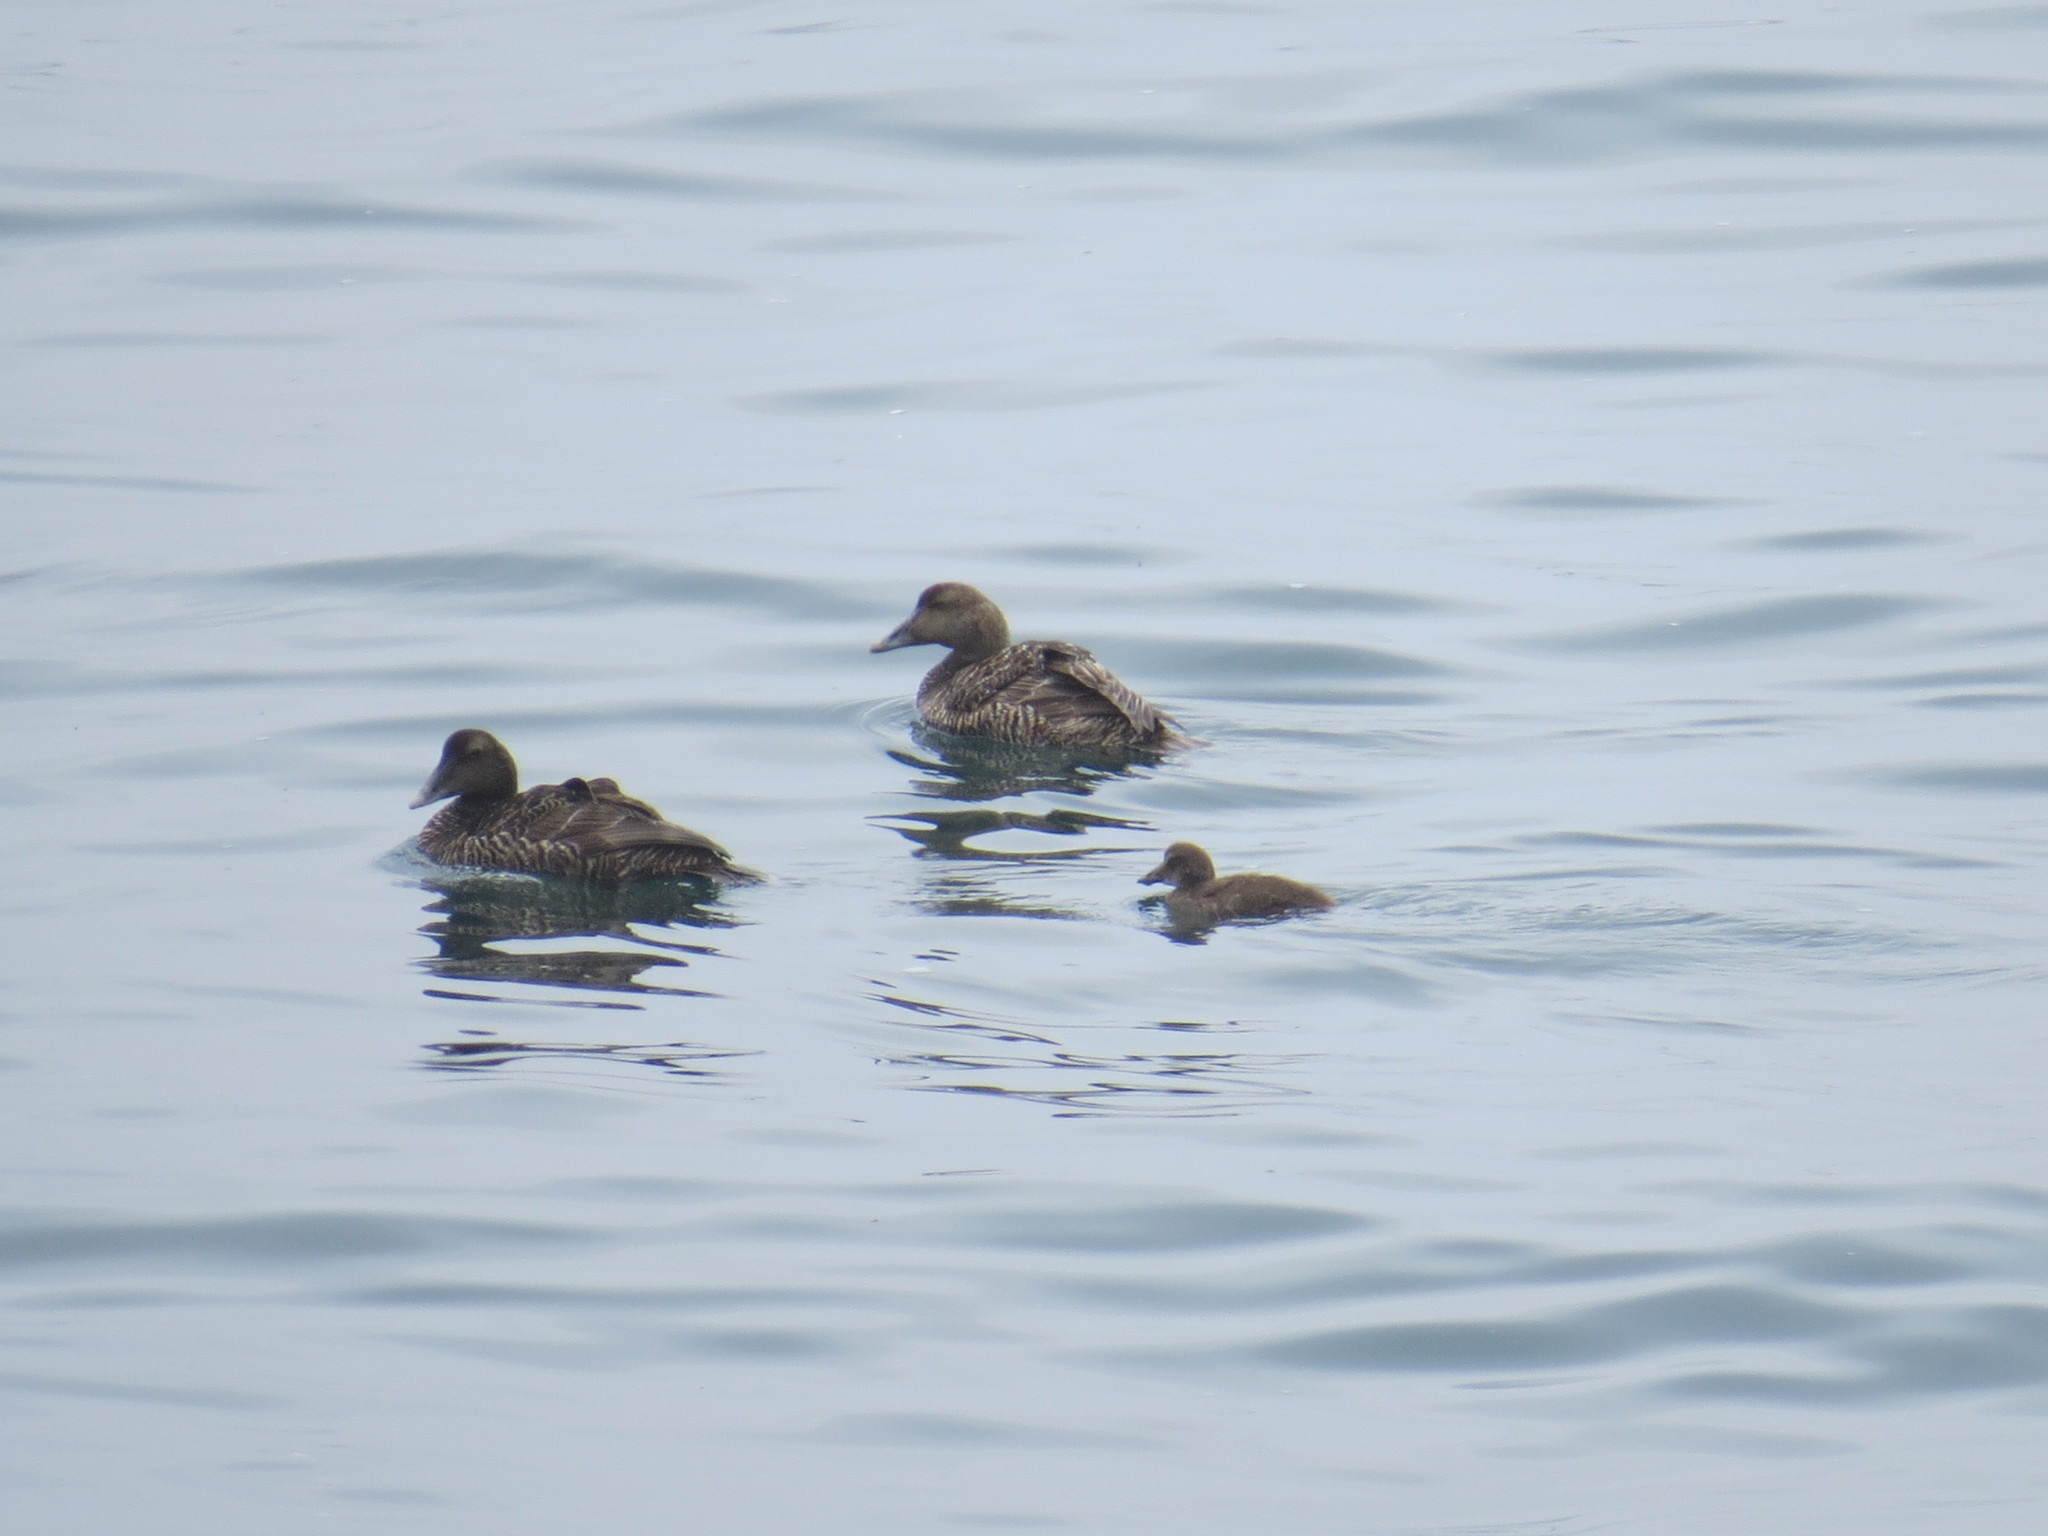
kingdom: Animalia
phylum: Chordata
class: Aves
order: Anseriformes
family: Anatidae
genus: Somateria
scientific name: Somateria mollissima
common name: Common eider
